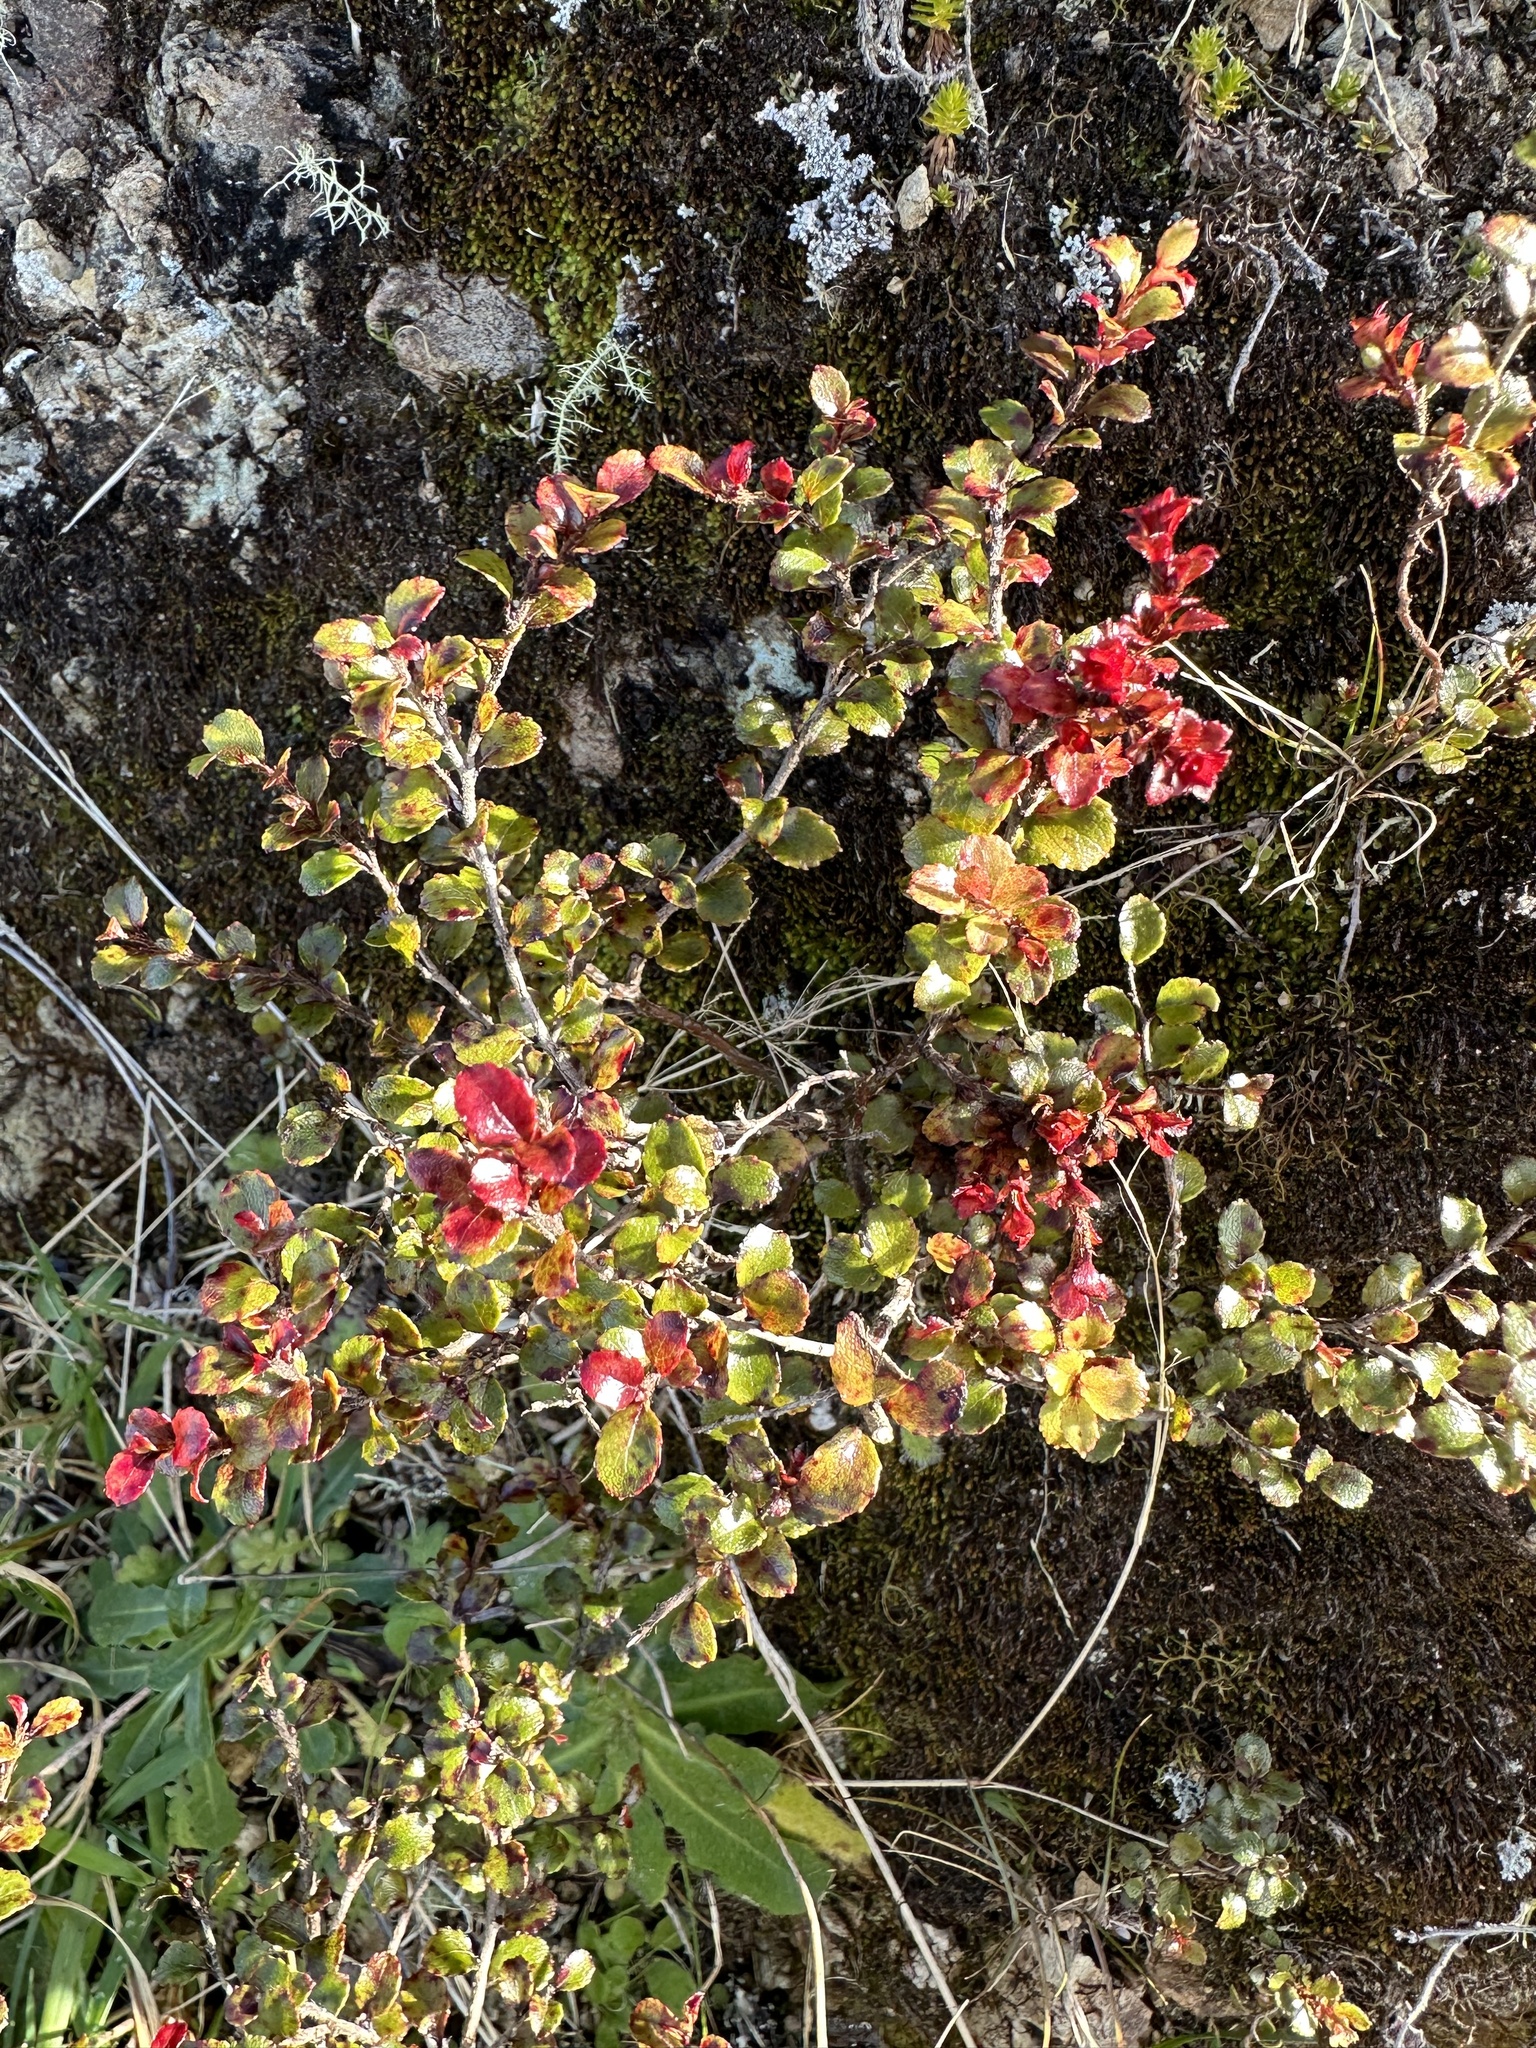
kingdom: Plantae
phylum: Tracheophyta
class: Magnoliopsida
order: Ericales
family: Ericaceae
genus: Gaultheria
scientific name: Gaultheria antipoda
